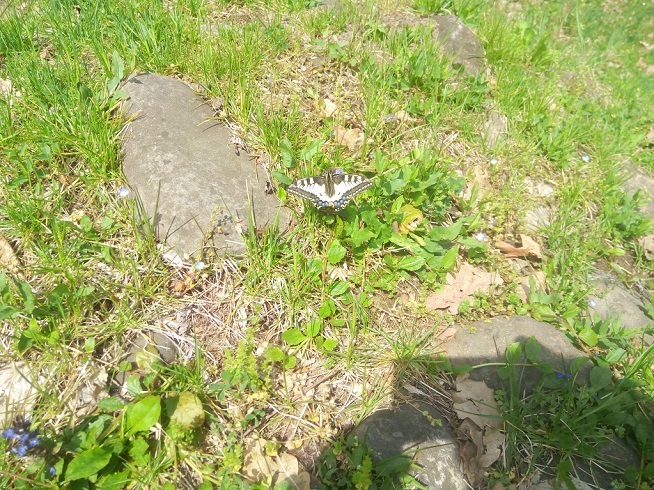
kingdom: Animalia
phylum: Arthropoda
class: Insecta
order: Lepidoptera
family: Papilionidae
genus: Papilio
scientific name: Papilio machaon
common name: Swallowtail
